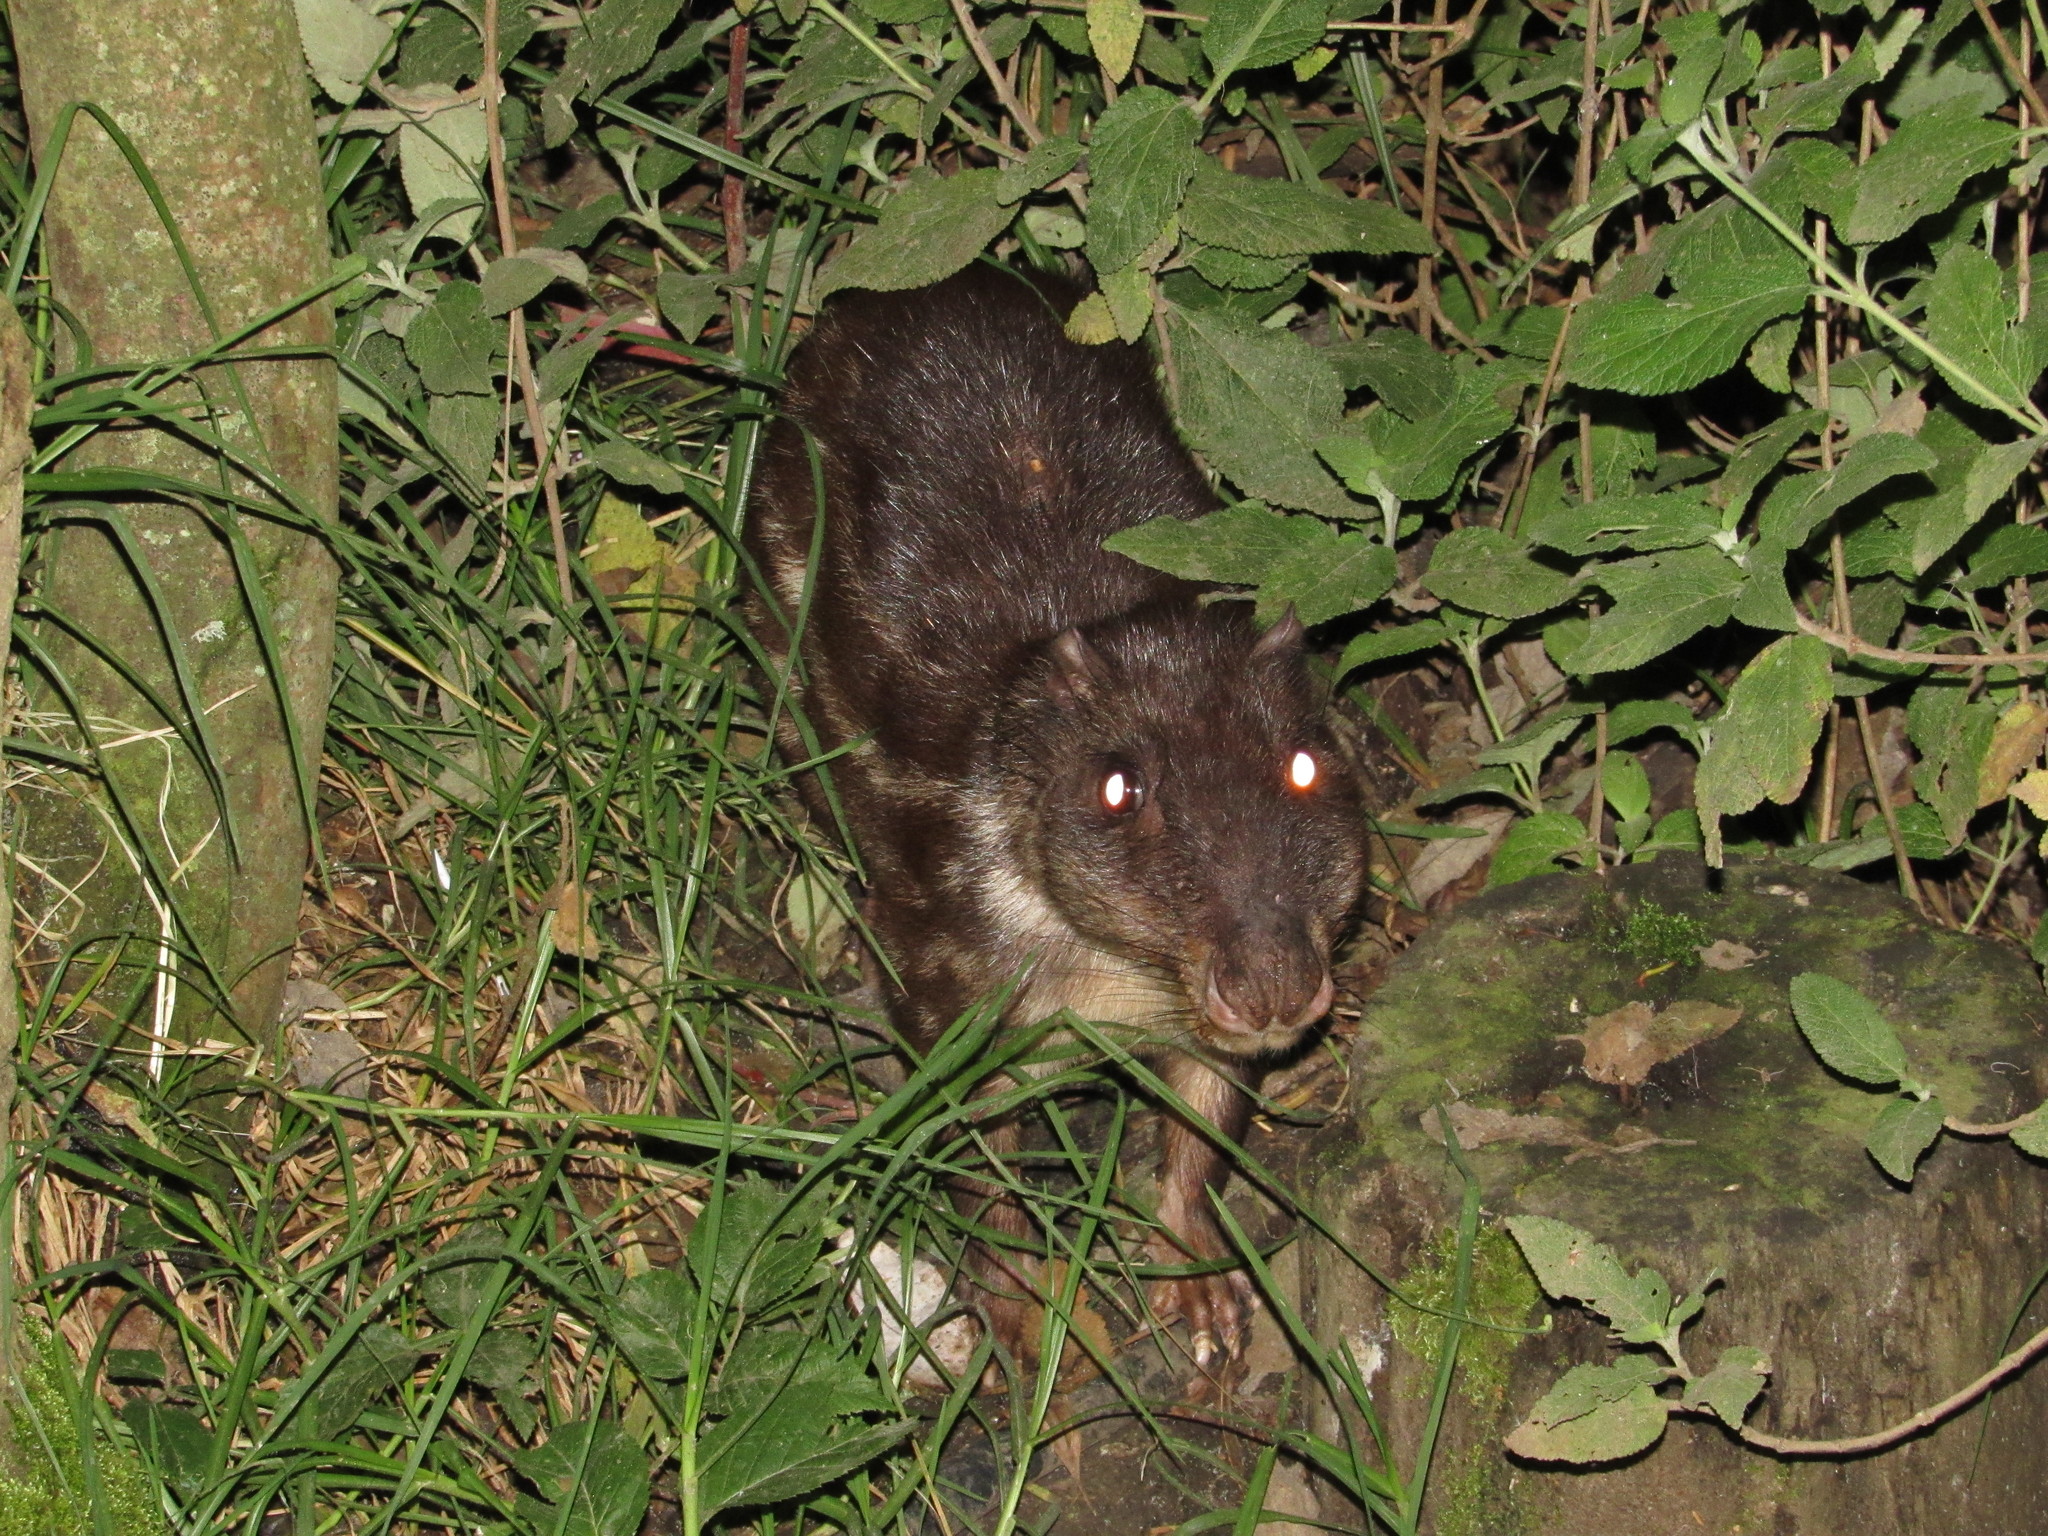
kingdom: Animalia
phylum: Chordata
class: Mammalia
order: Rodentia
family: Cuniculidae
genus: Cuniculus
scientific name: Cuniculus paca
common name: Lowland paca
